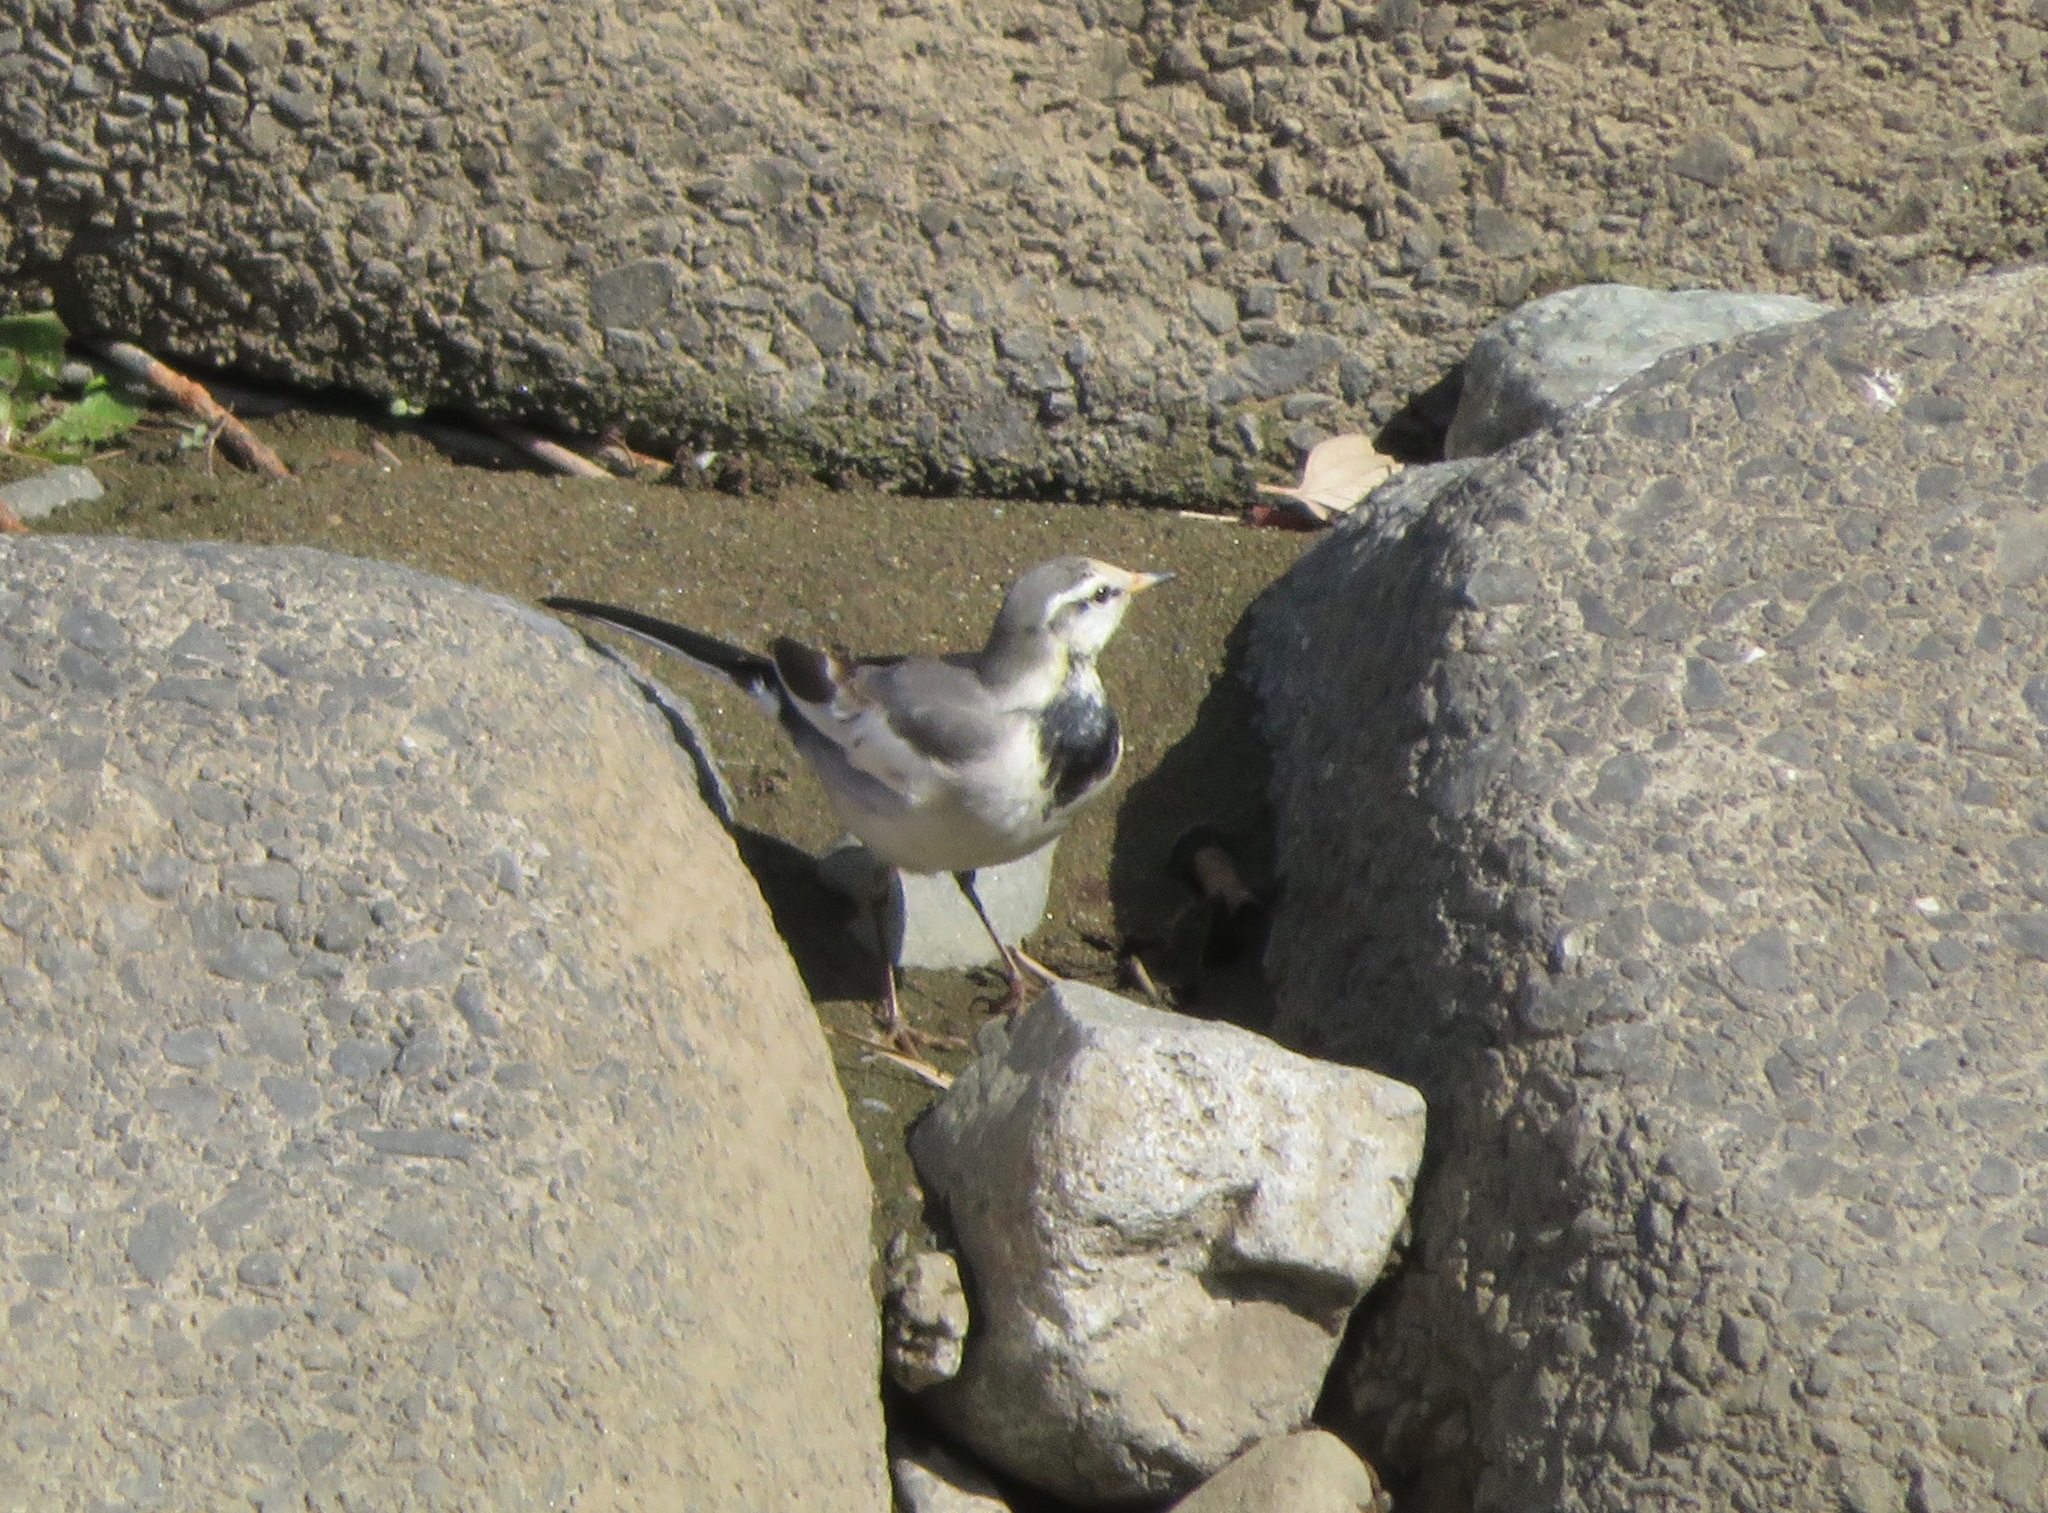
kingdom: Animalia
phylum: Chordata
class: Aves
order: Passeriformes
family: Motacillidae
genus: Motacilla
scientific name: Motacilla alba
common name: White wagtail
